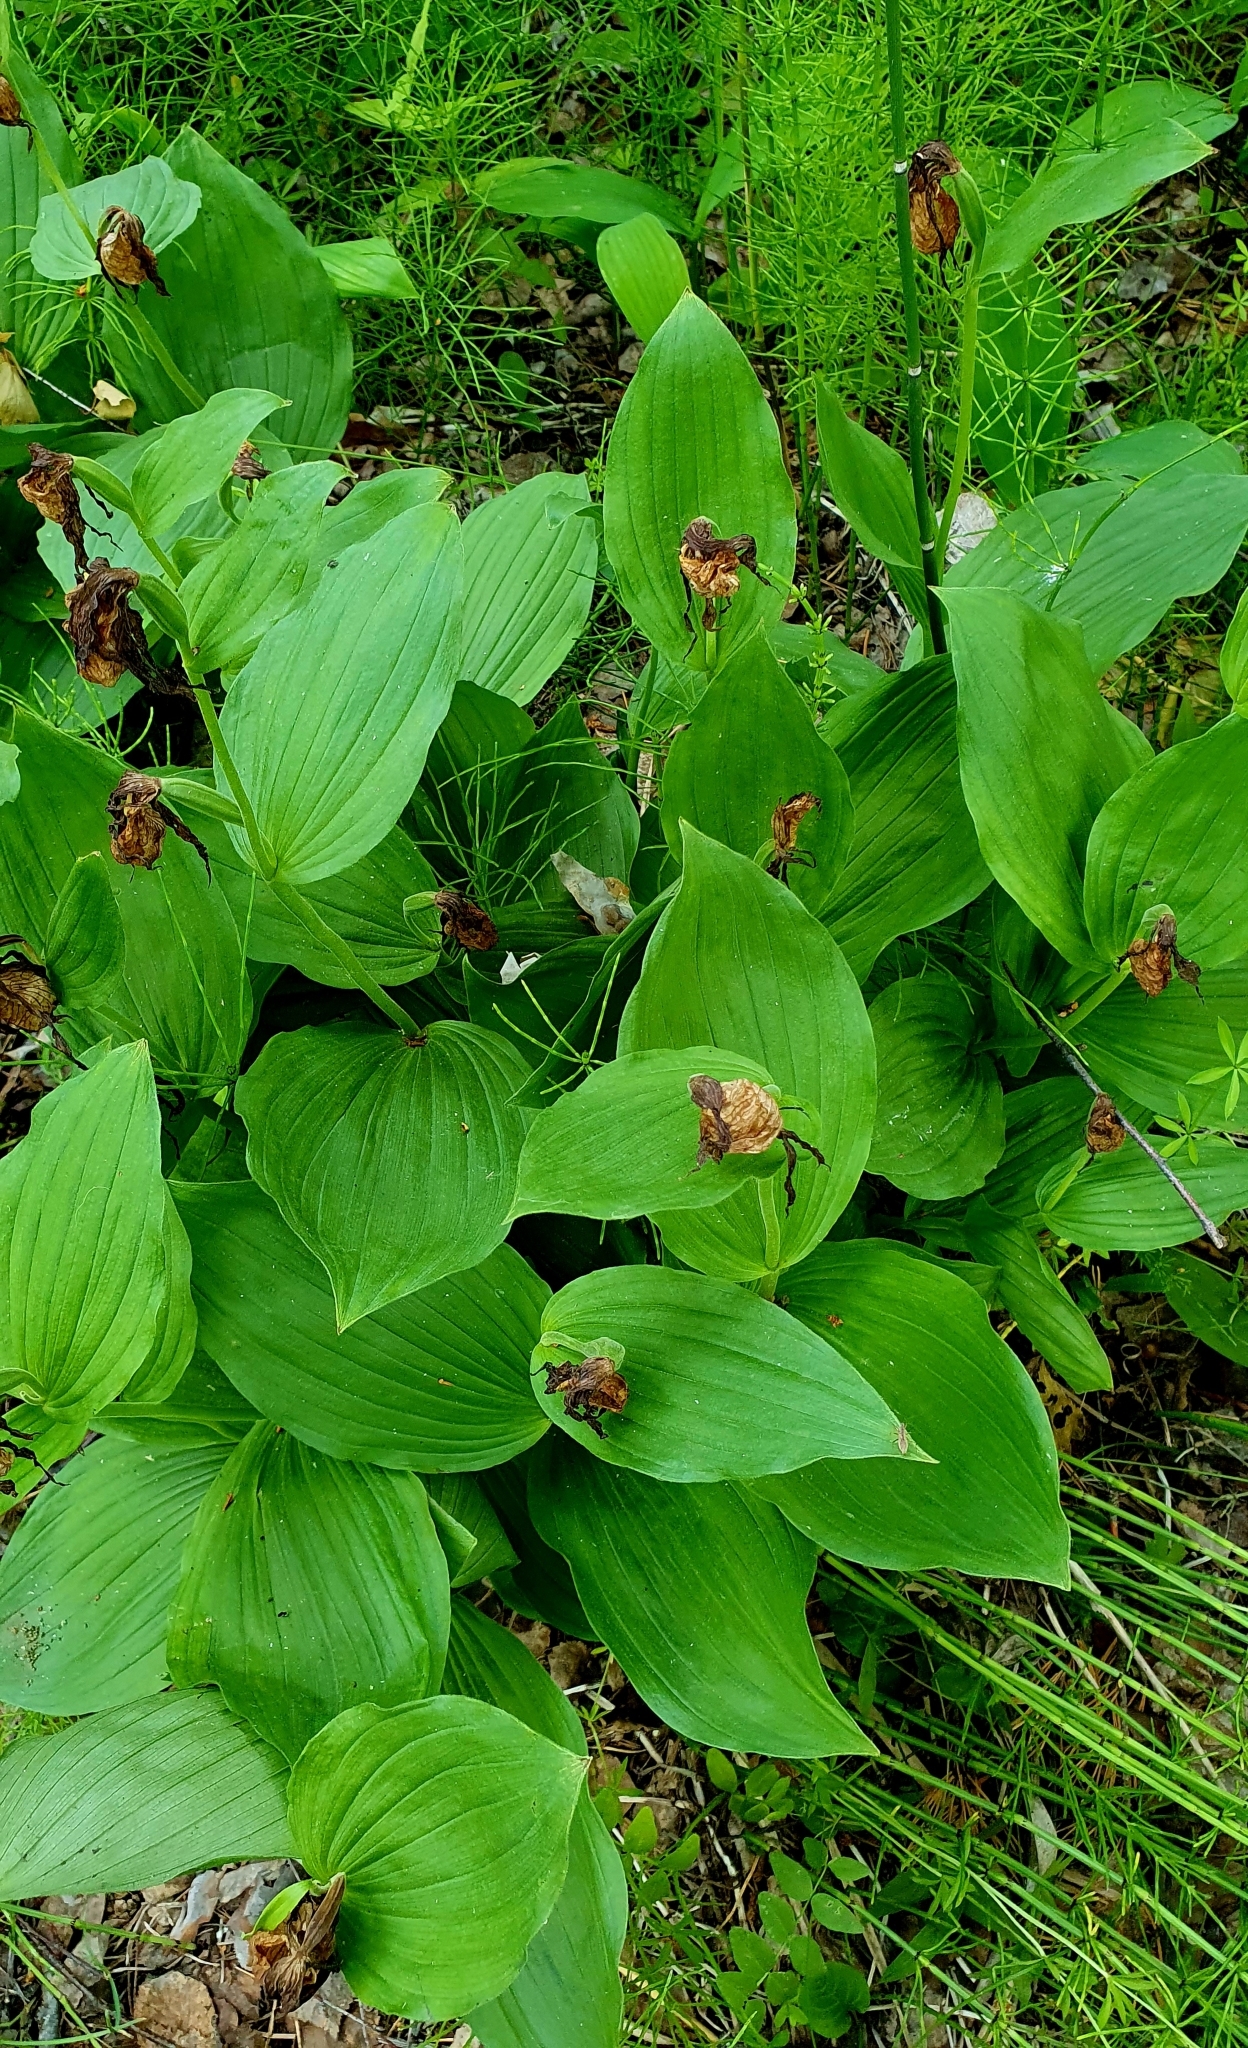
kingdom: Plantae
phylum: Tracheophyta
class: Liliopsida
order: Asparagales
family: Orchidaceae
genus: Cypripedium
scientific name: Cypripedium calceolus
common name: Lady's-slipper
